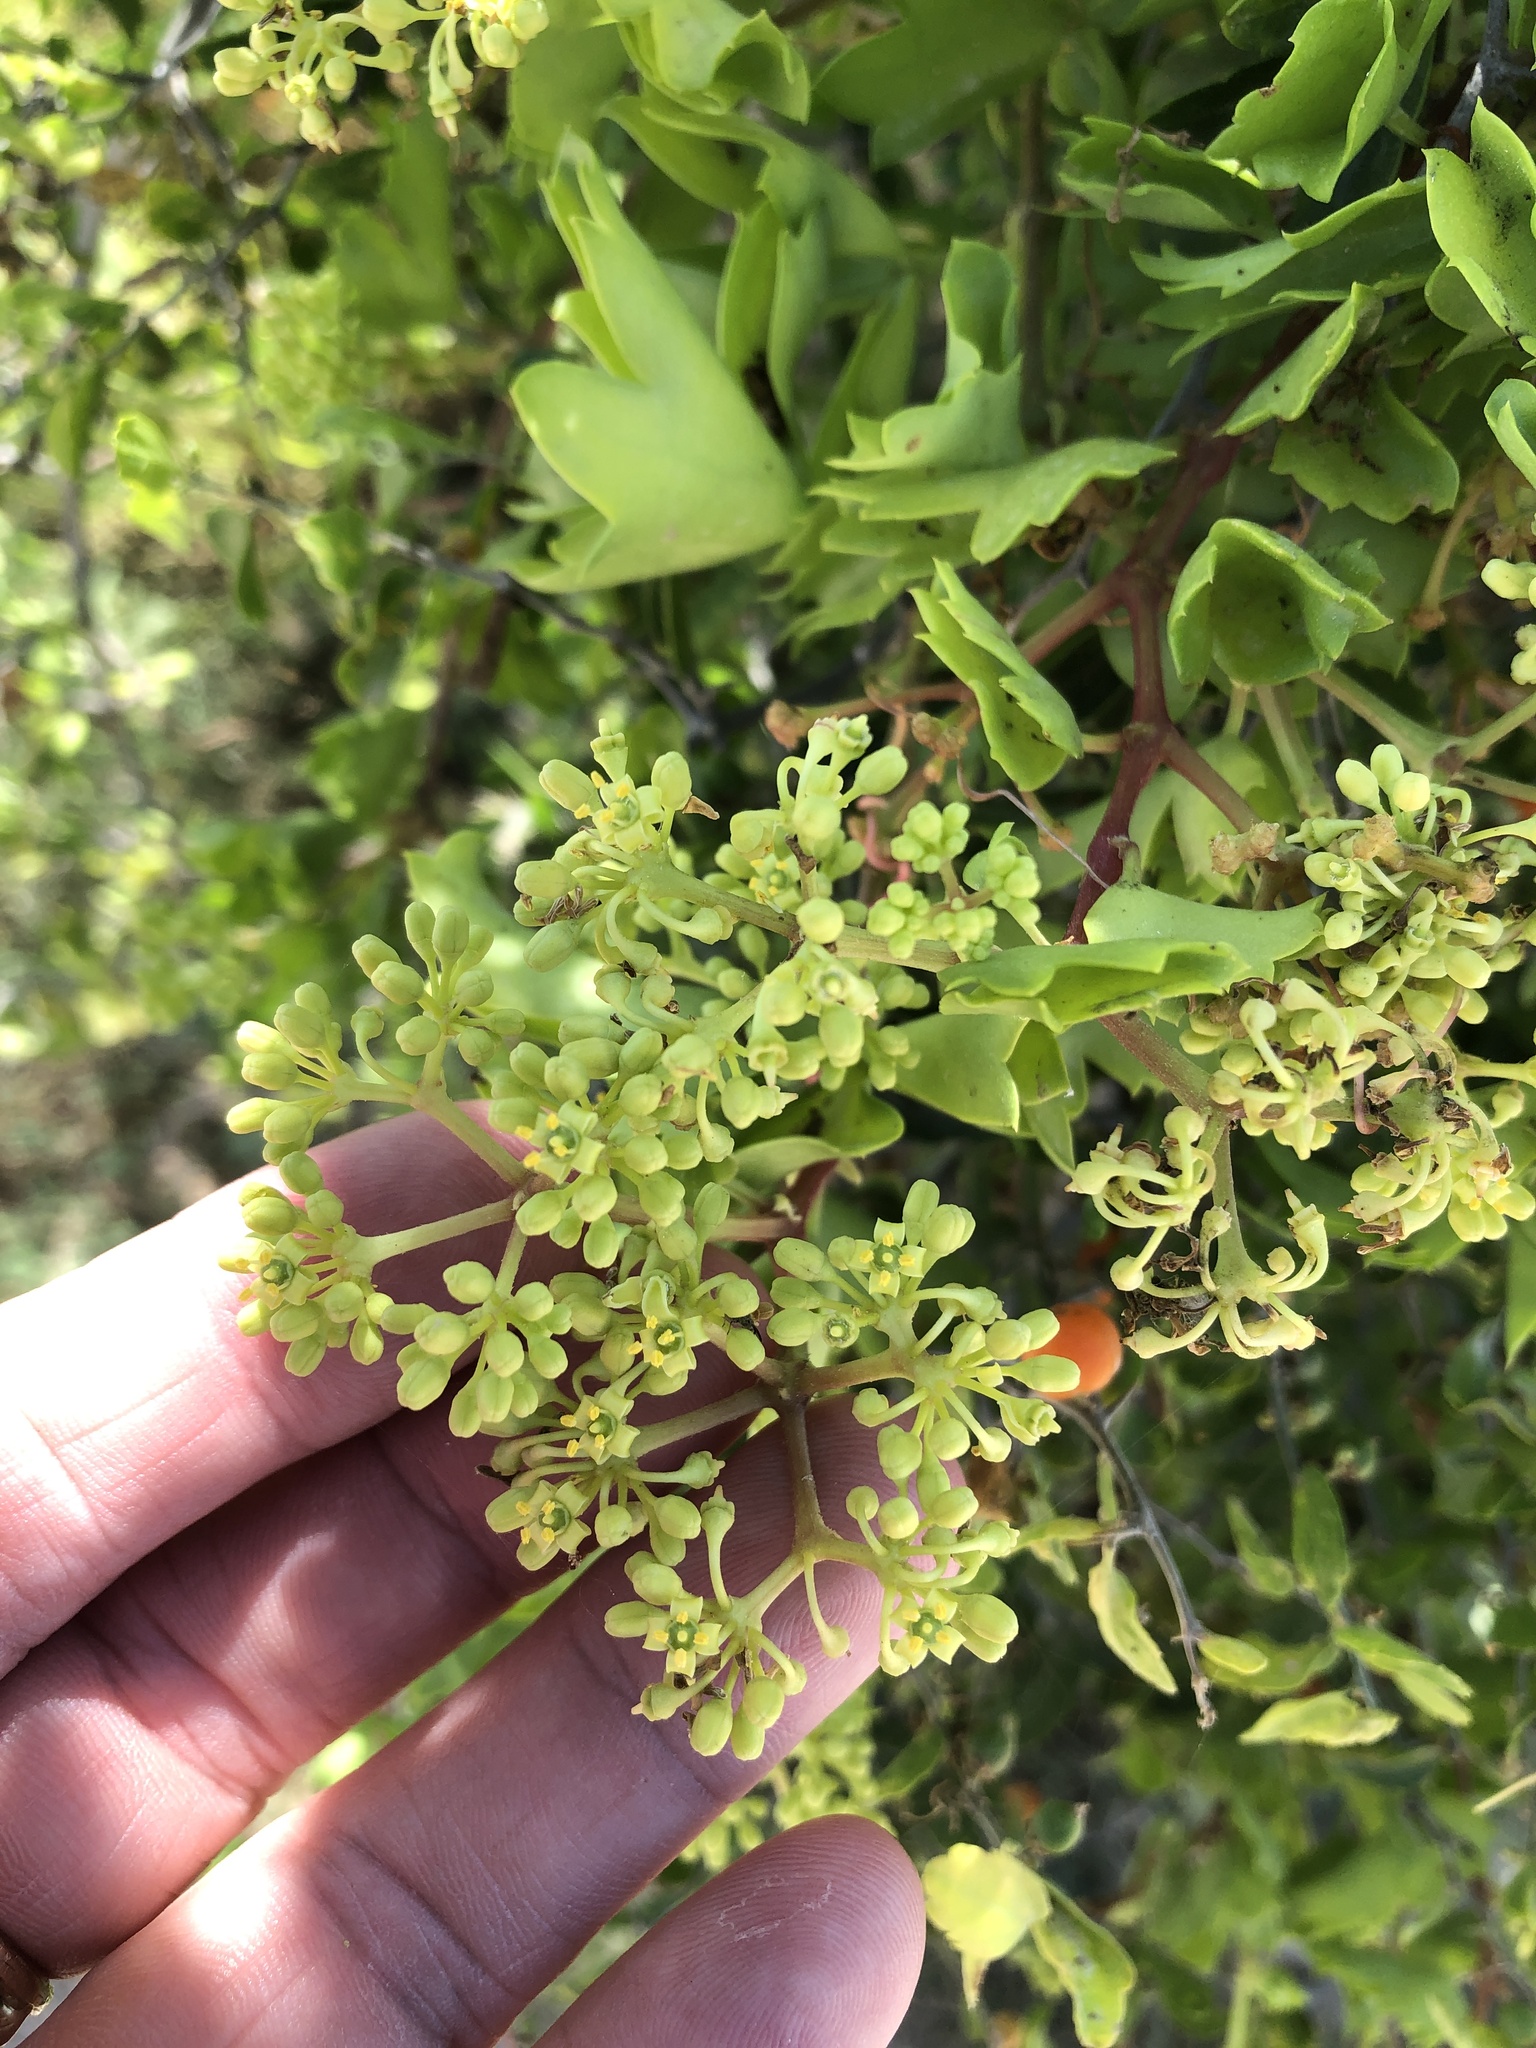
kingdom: Plantae
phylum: Tracheophyta
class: Magnoliopsida
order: Vitales
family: Vitaceae
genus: Cissus
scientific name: Cissus trifoliata
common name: Vine-sorrel
